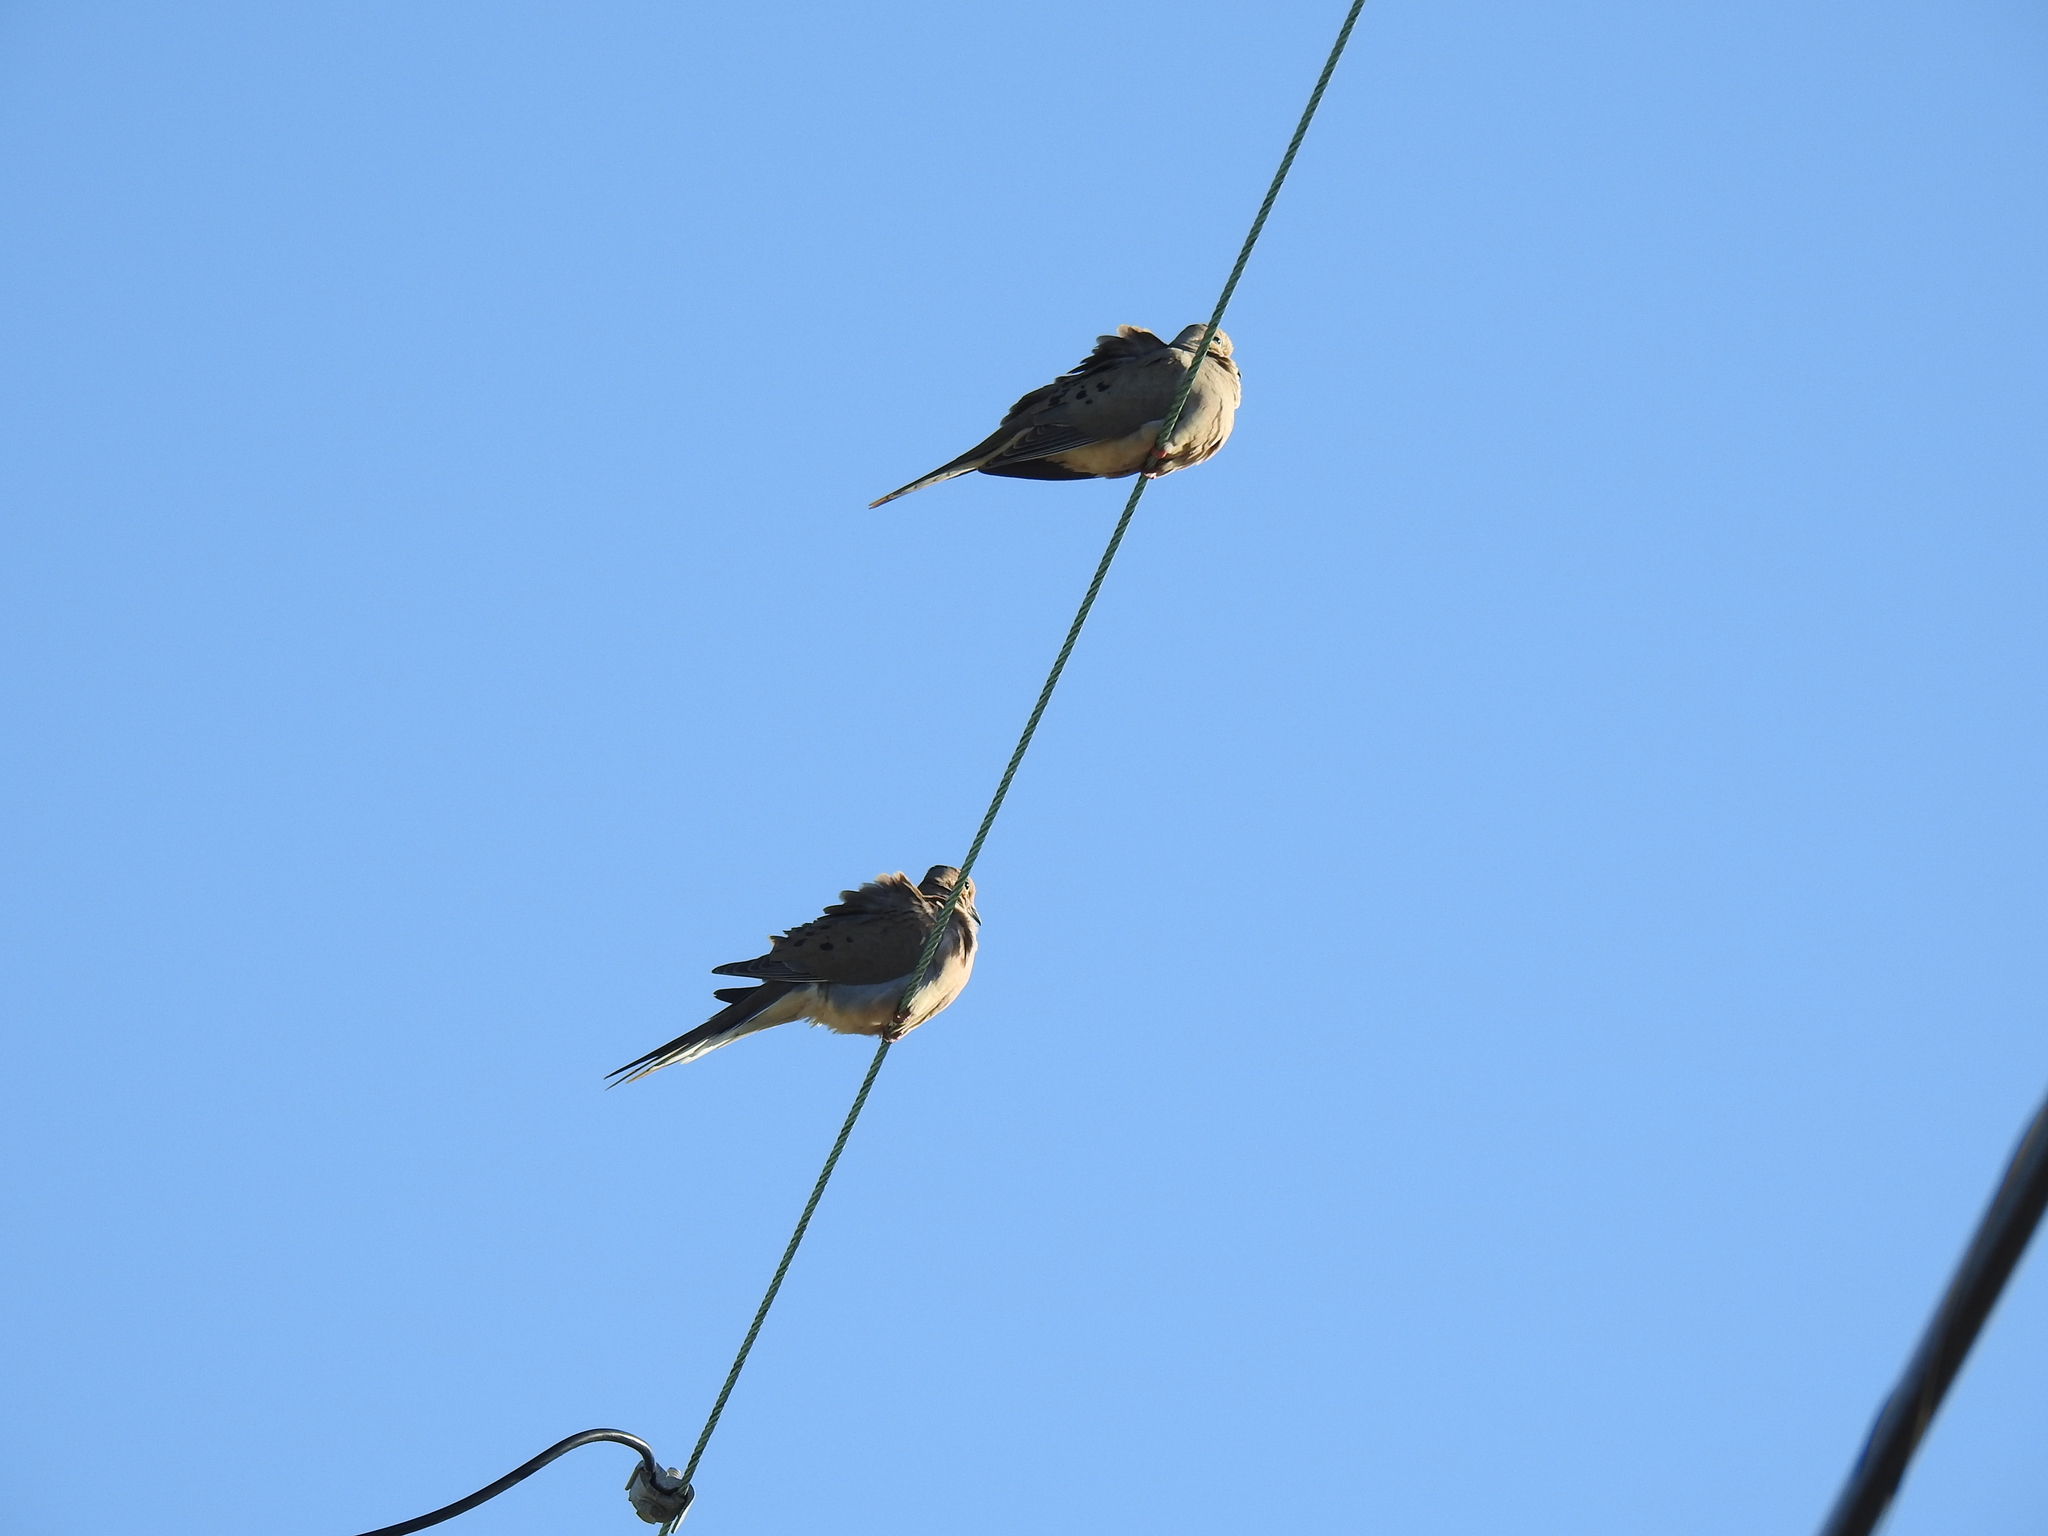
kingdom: Animalia
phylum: Chordata
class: Aves
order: Columbiformes
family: Columbidae
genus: Zenaida
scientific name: Zenaida macroura
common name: Mourning dove
